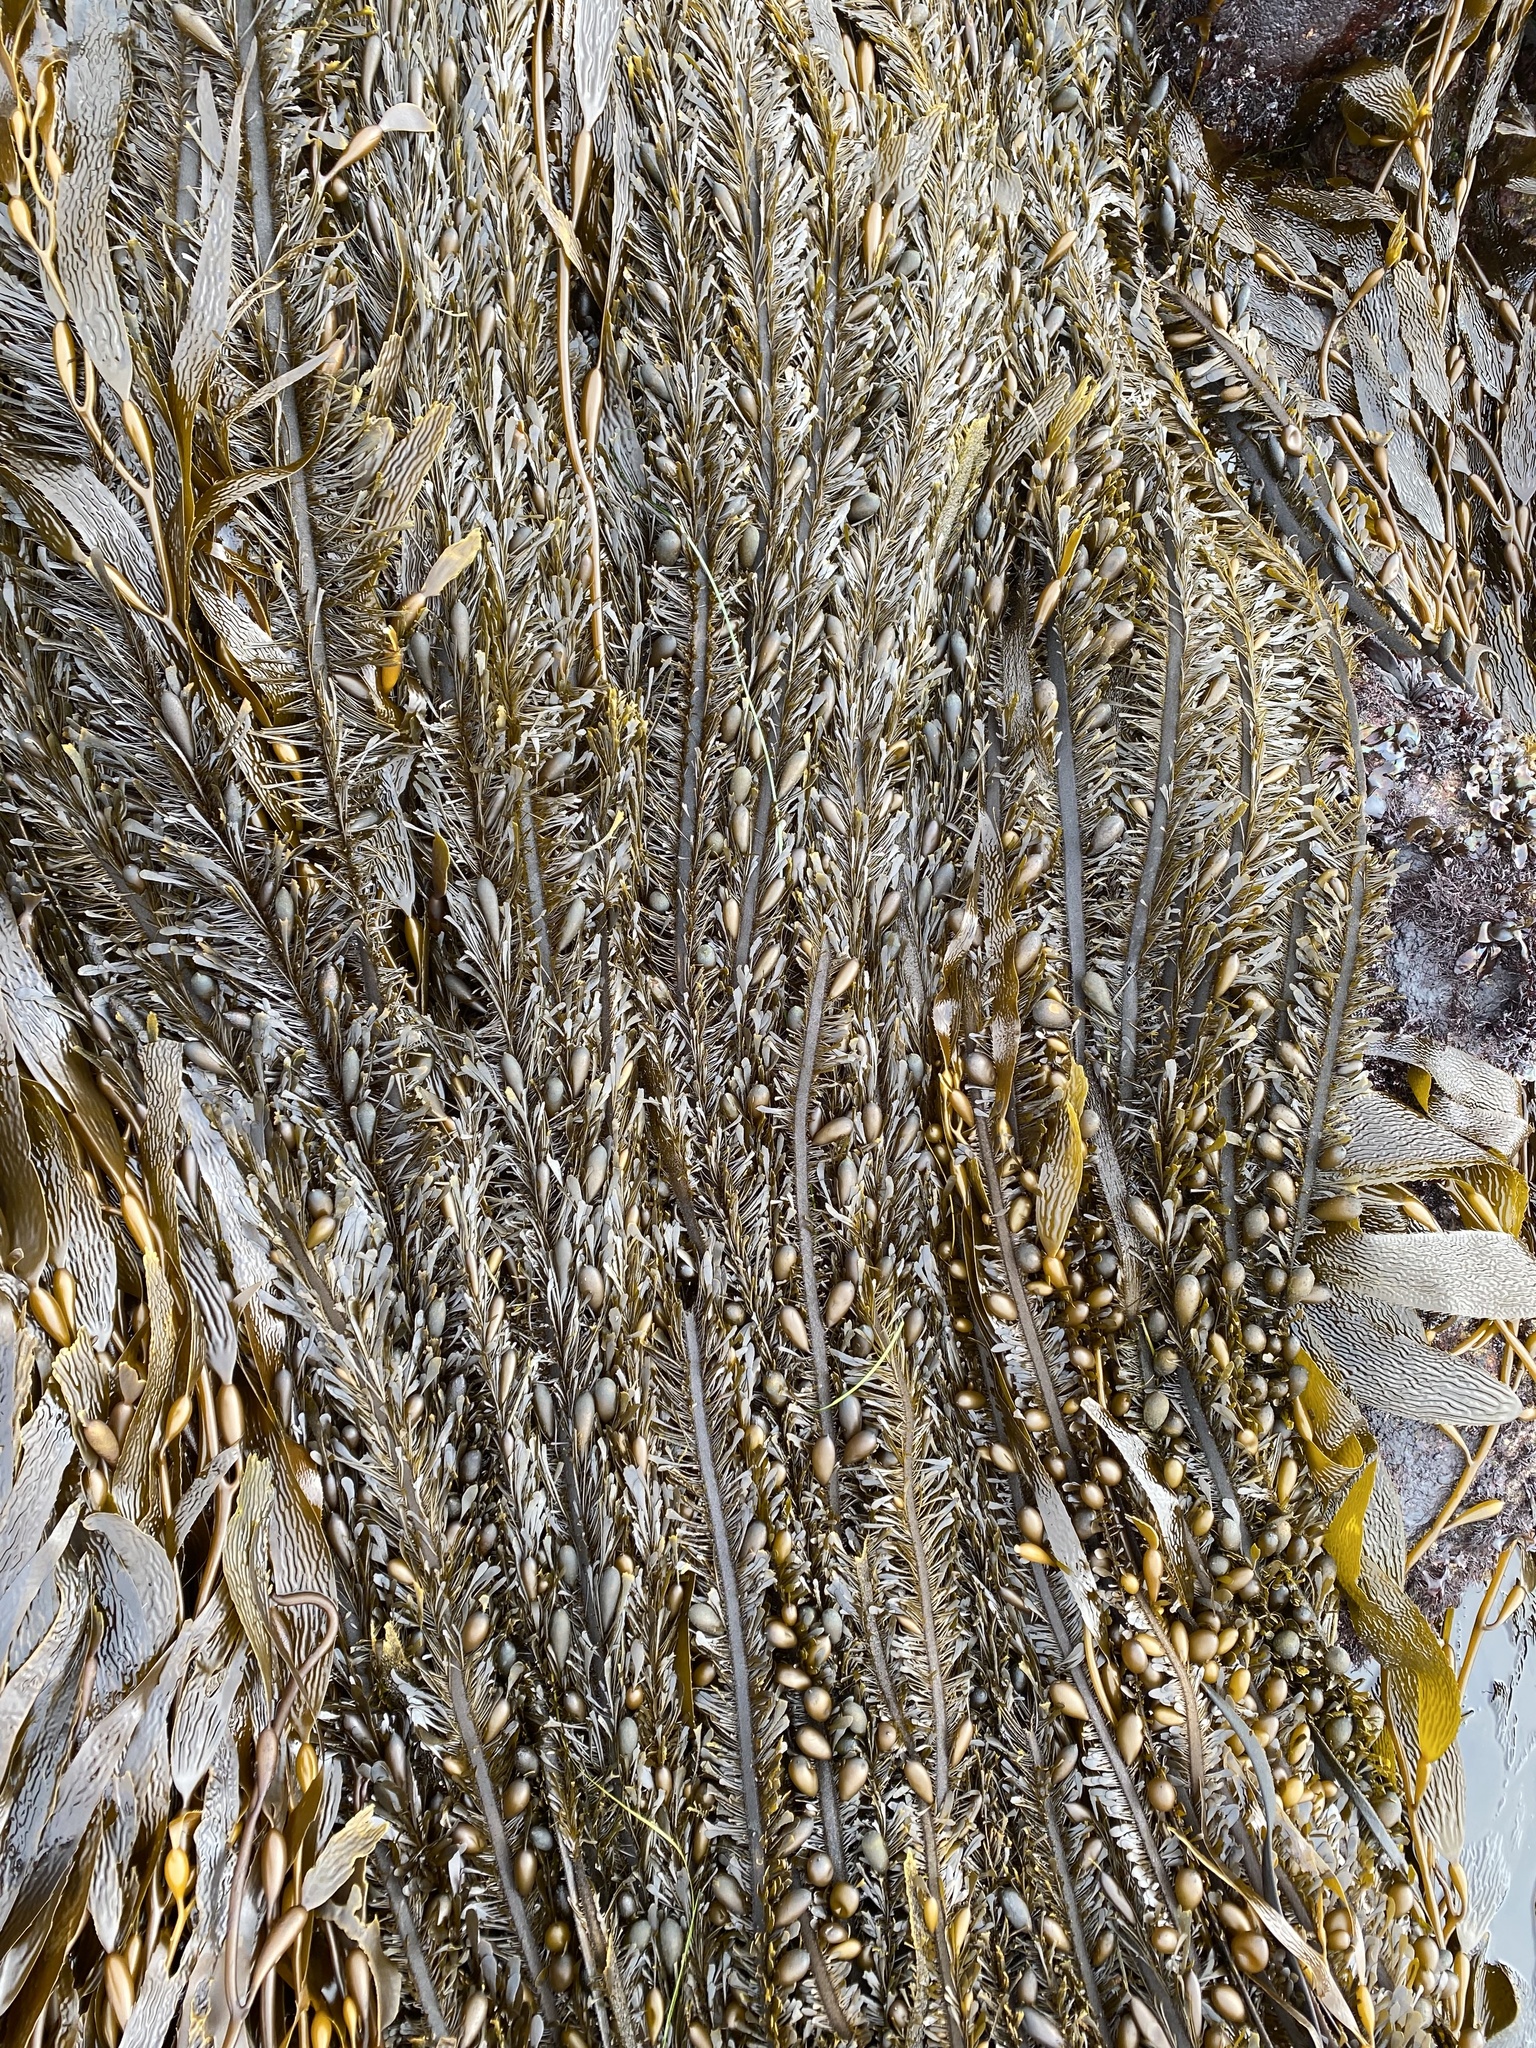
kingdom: Chromista
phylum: Ochrophyta
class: Phaeophyceae
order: Laminariales
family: Lessoniaceae
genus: Egregia
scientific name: Egregia menziesii
